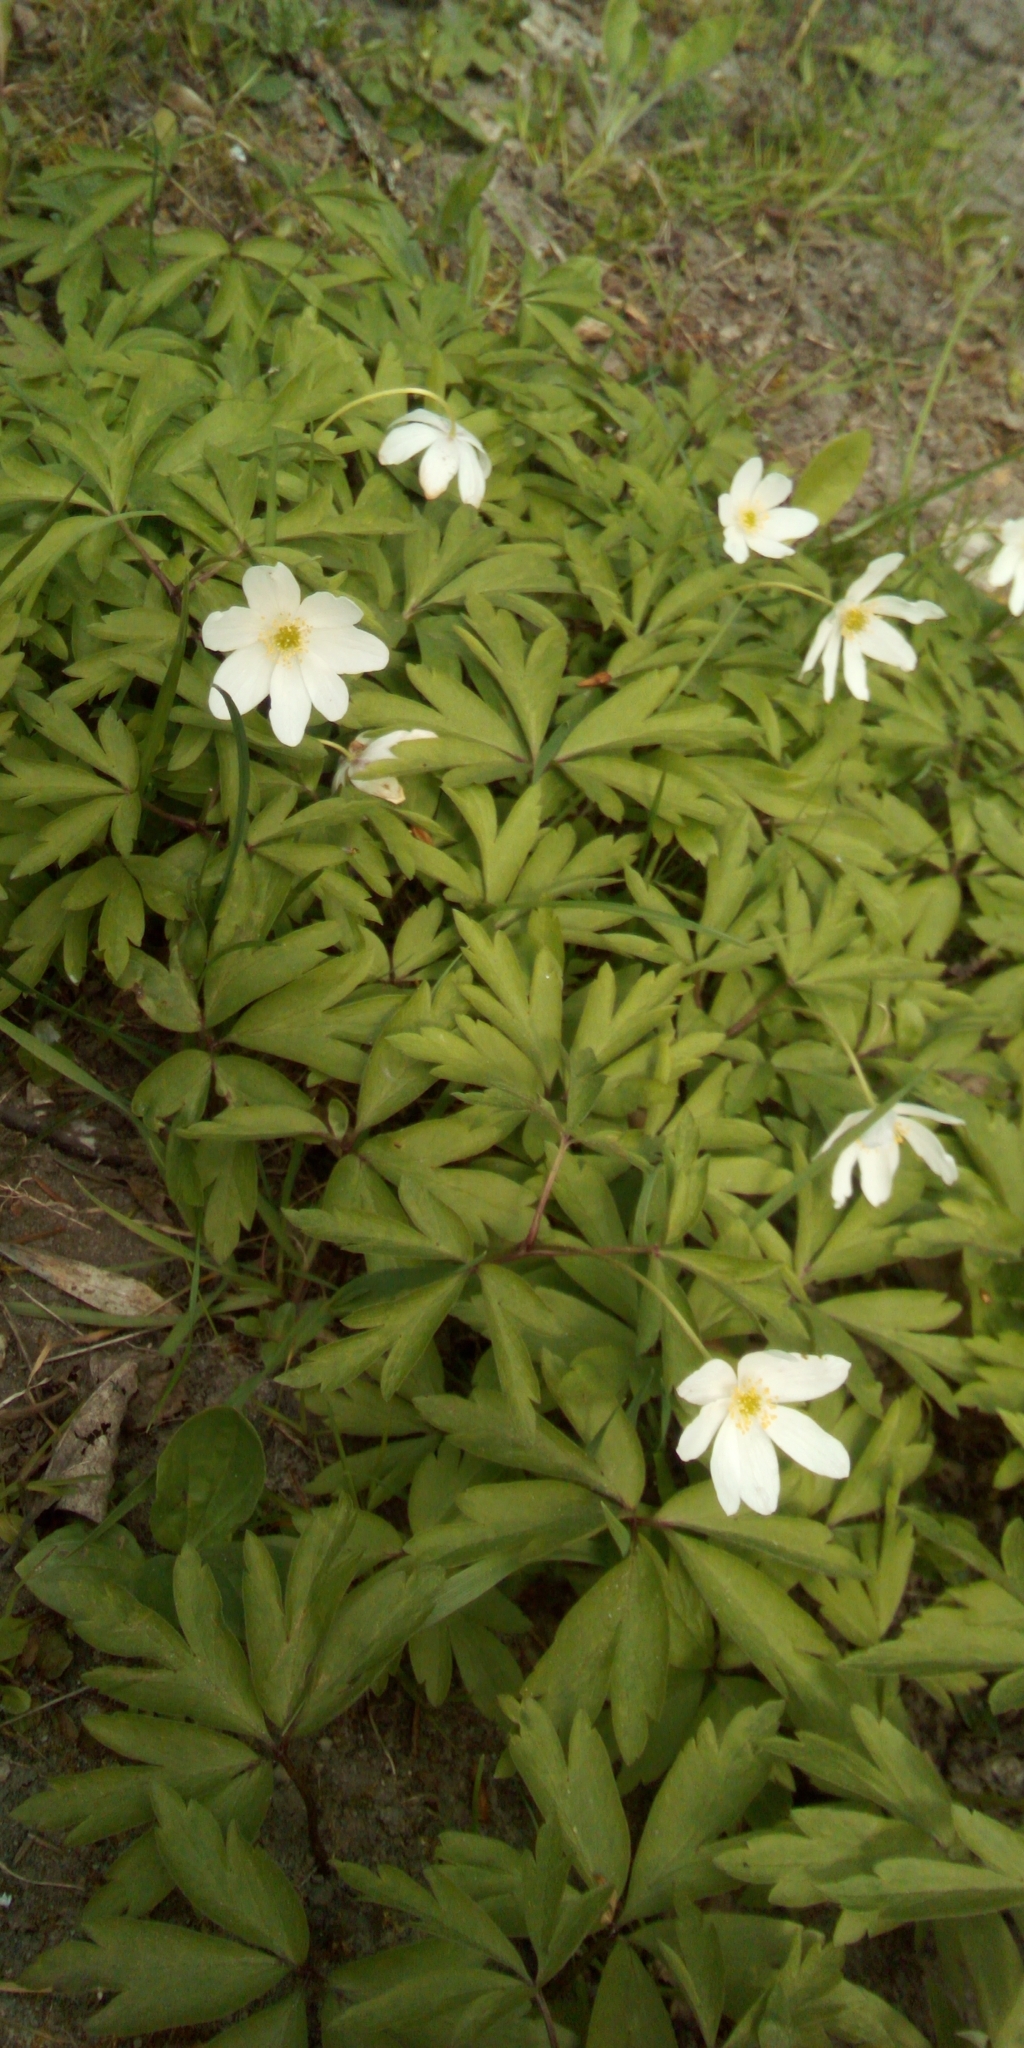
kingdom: Plantae
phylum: Tracheophyta
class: Magnoliopsida
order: Ranunculales
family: Ranunculaceae
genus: Anemone
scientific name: Anemone nemorosa
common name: Wood anemone
